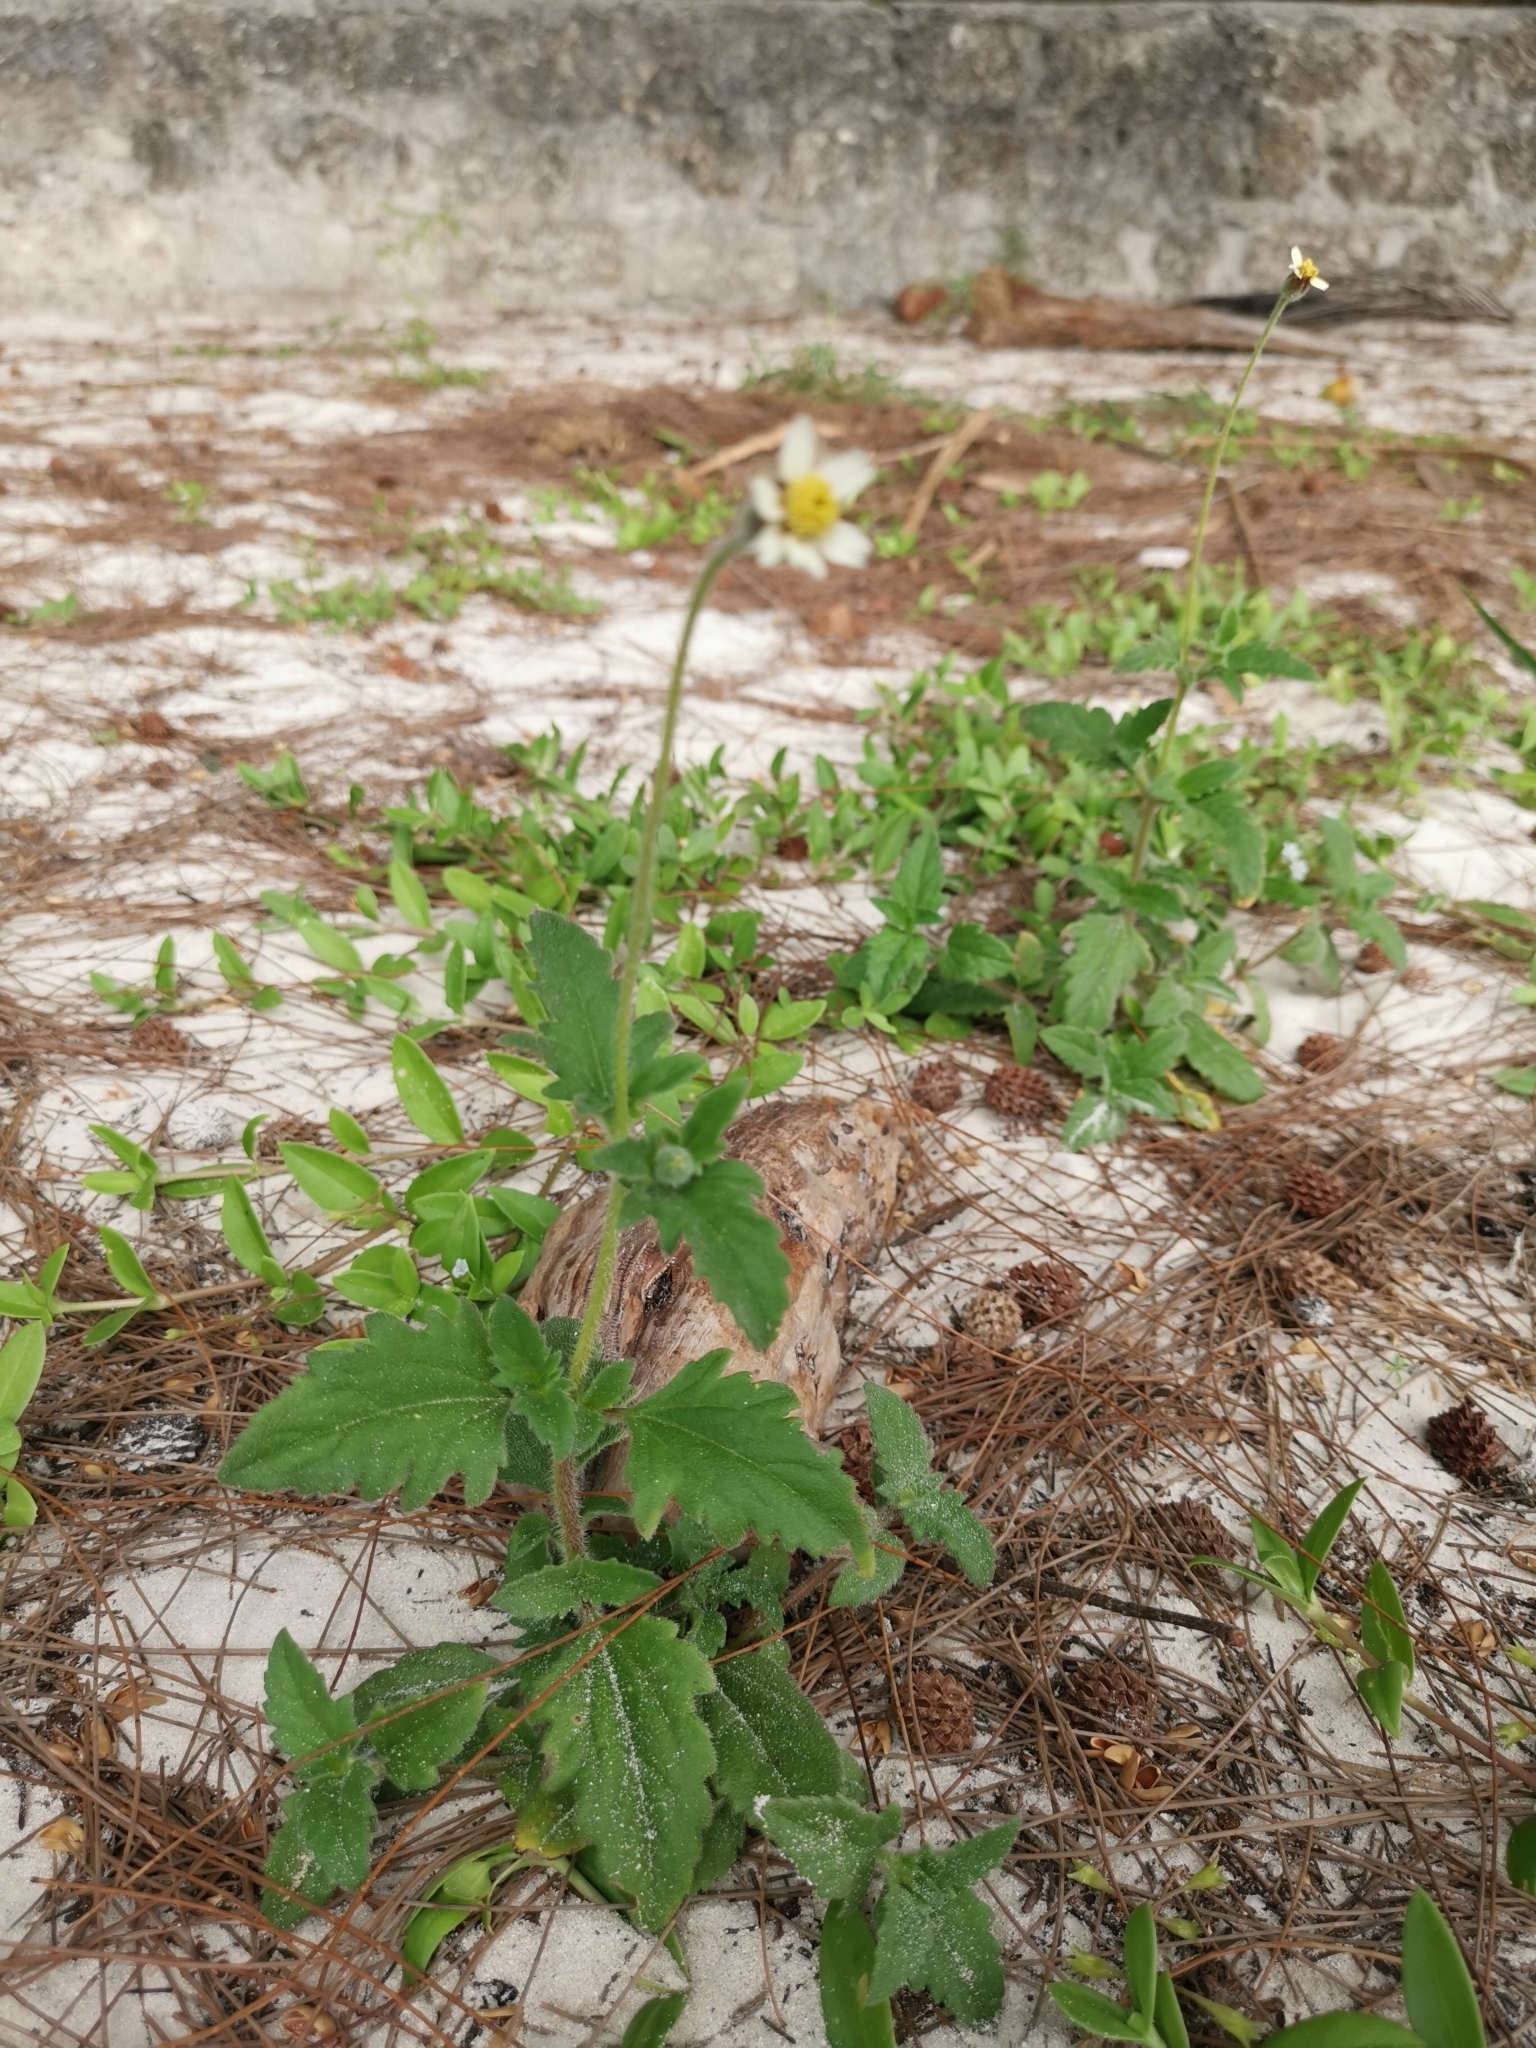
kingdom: Plantae
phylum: Tracheophyta
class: Magnoliopsida
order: Asterales
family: Asteraceae
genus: Tridax
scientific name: Tridax procumbens
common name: Coatbuttons
